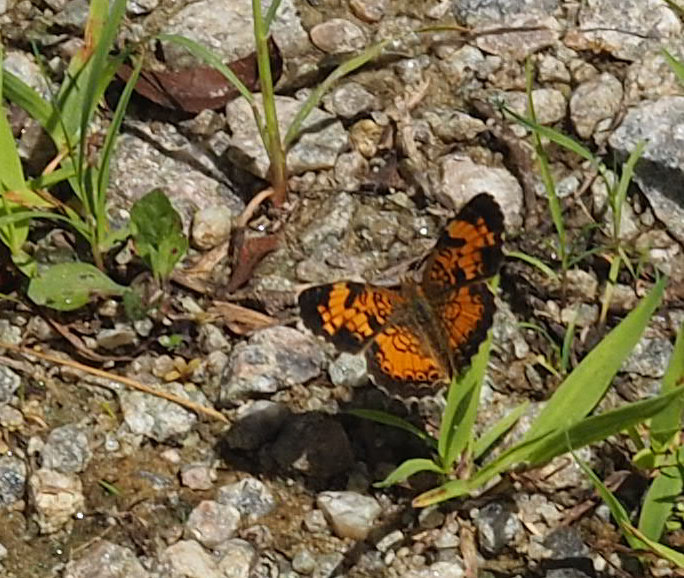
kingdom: Animalia
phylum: Arthropoda
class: Insecta
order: Lepidoptera
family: Nymphalidae
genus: Phyciodes
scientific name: Phyciodes tharos
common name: Pearl crescent
